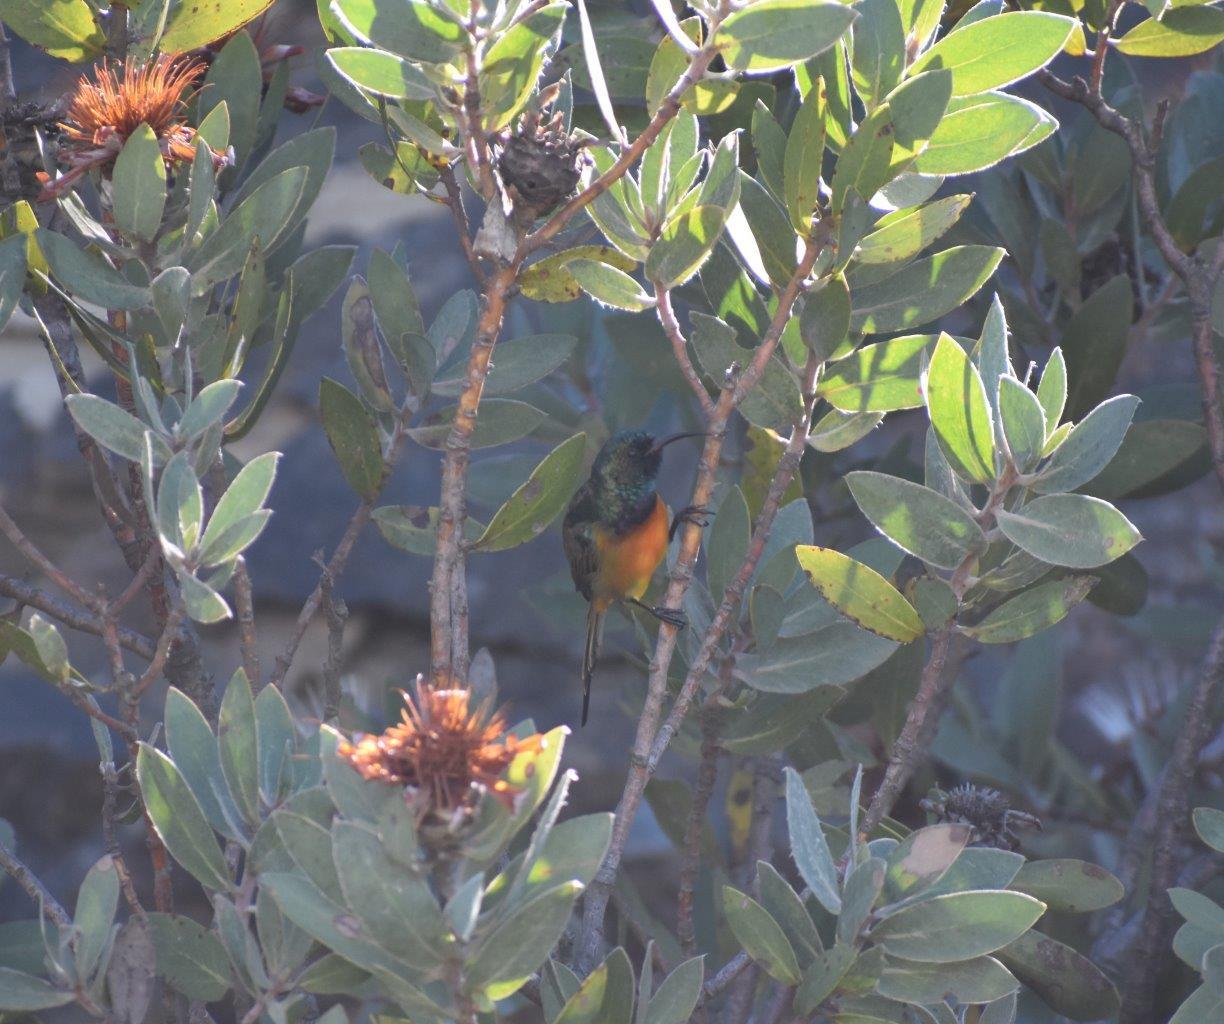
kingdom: Animalia
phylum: Chordata
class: Aves
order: Passeriformes
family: Nectariniidae
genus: Anthobaphes
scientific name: Anthobaphes violacea
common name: Orange-breasted sunbird
